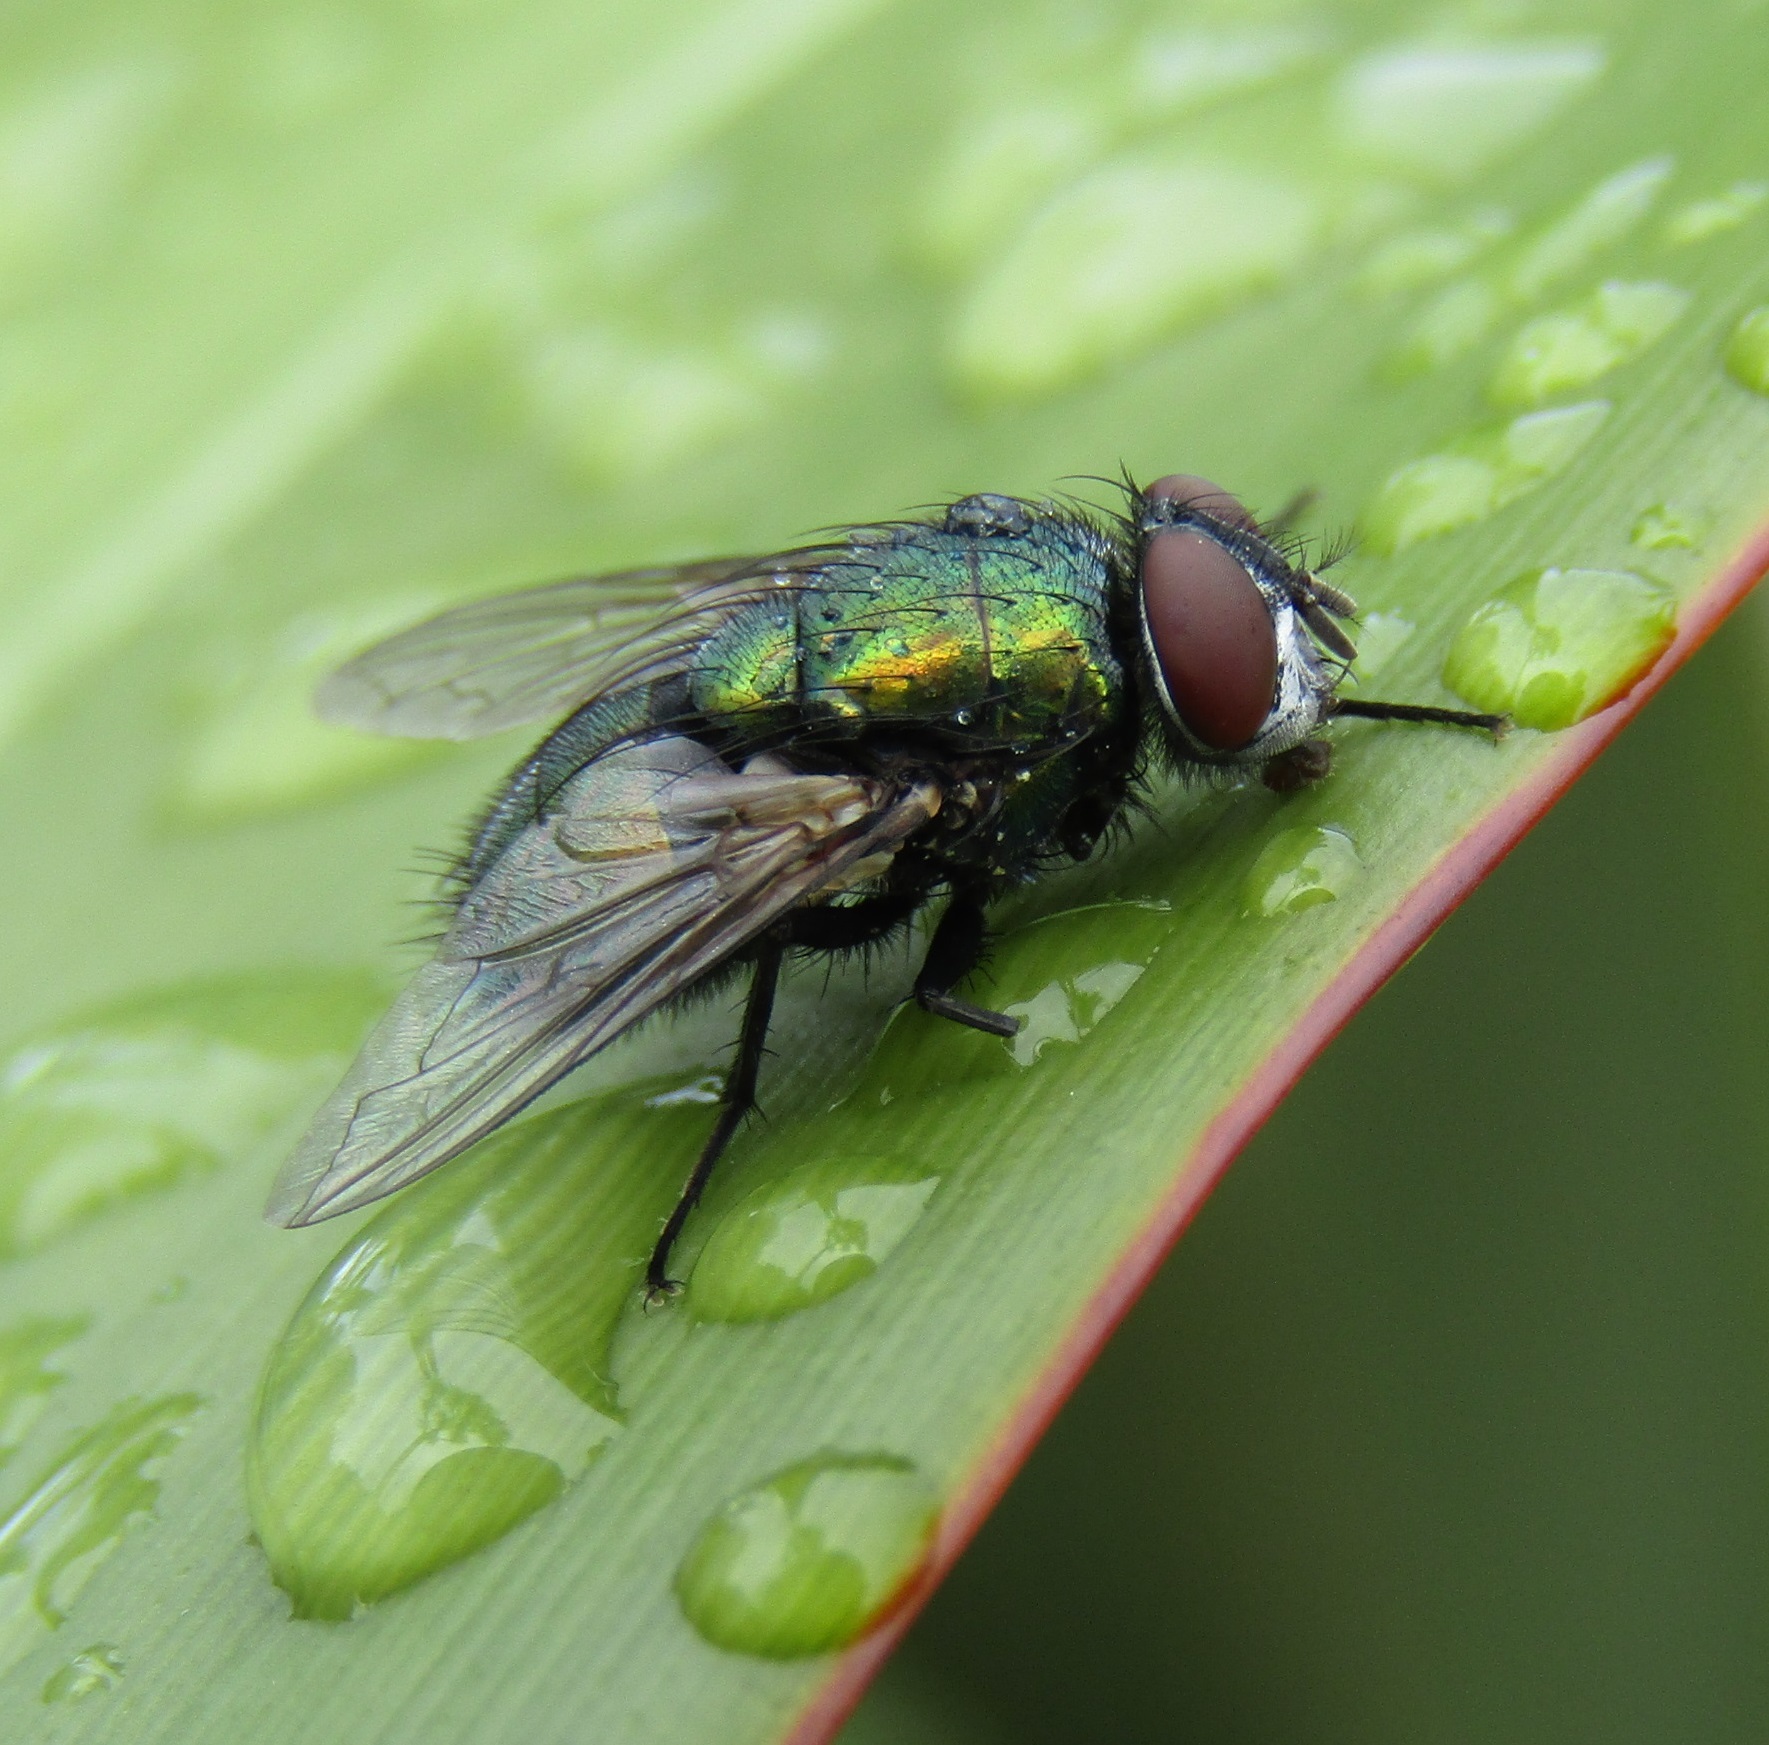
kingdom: Animalia
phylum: Arthropoda
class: Insecta
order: Diptera
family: Calliphoridae
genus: Lucilia
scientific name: Lucilia sericata
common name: Blow fly
